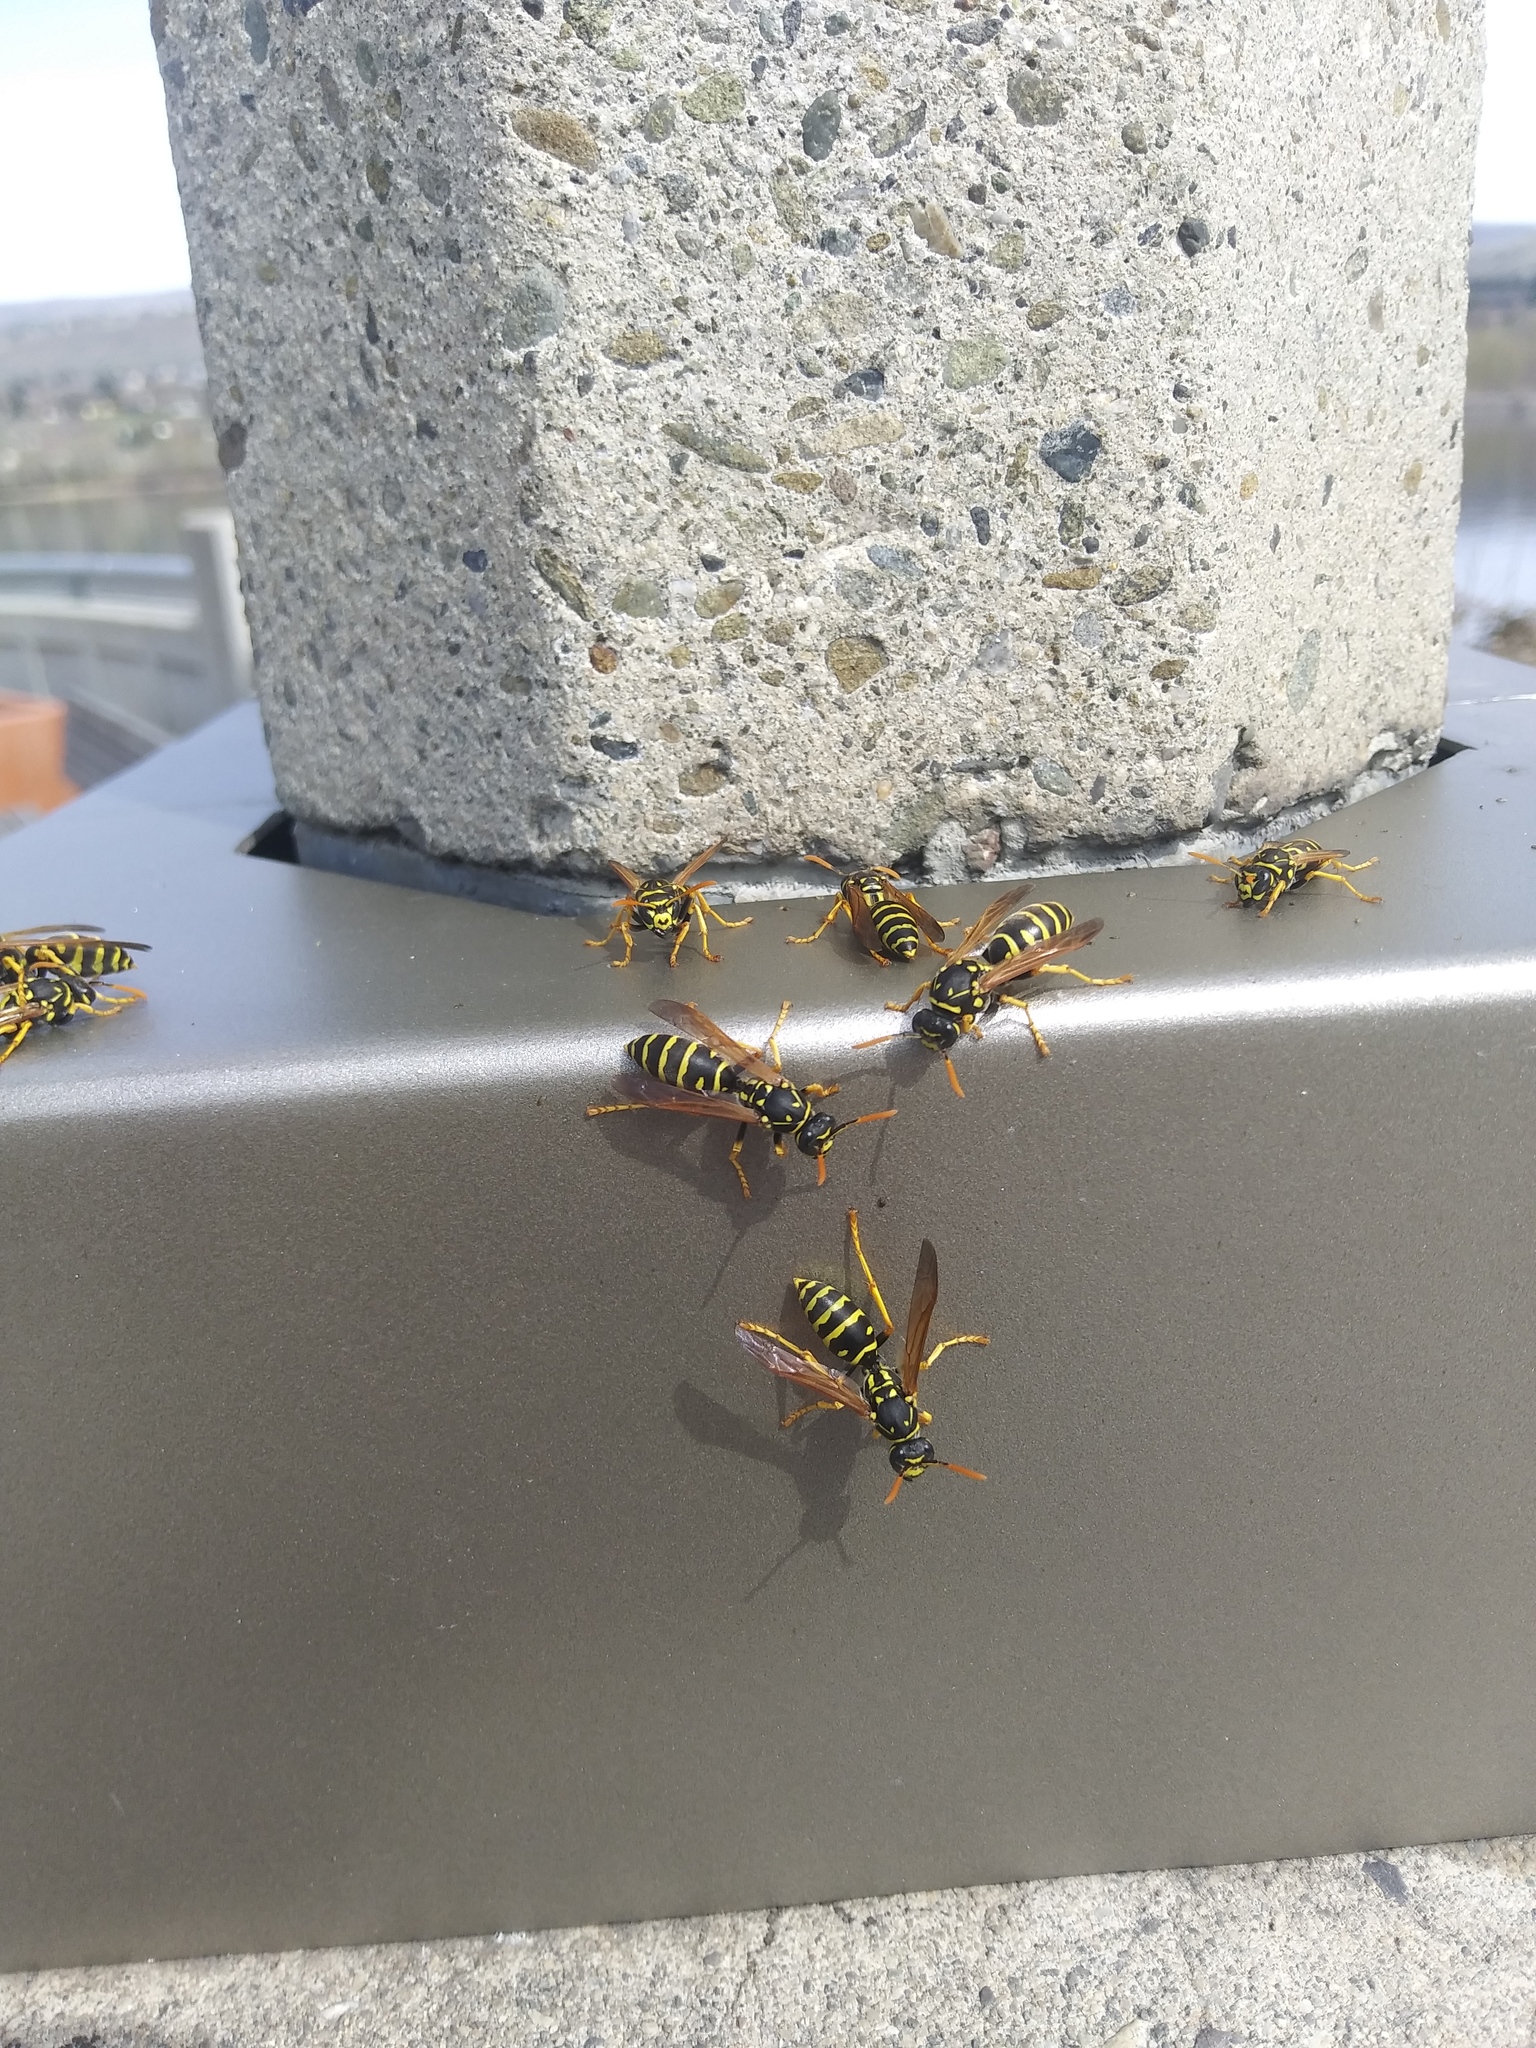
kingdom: Animalia
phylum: Arthropoda
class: Insecta
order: Hymenoptera
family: Eumenidae
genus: Polistes
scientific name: Polistes dominula
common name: Paper wasp
